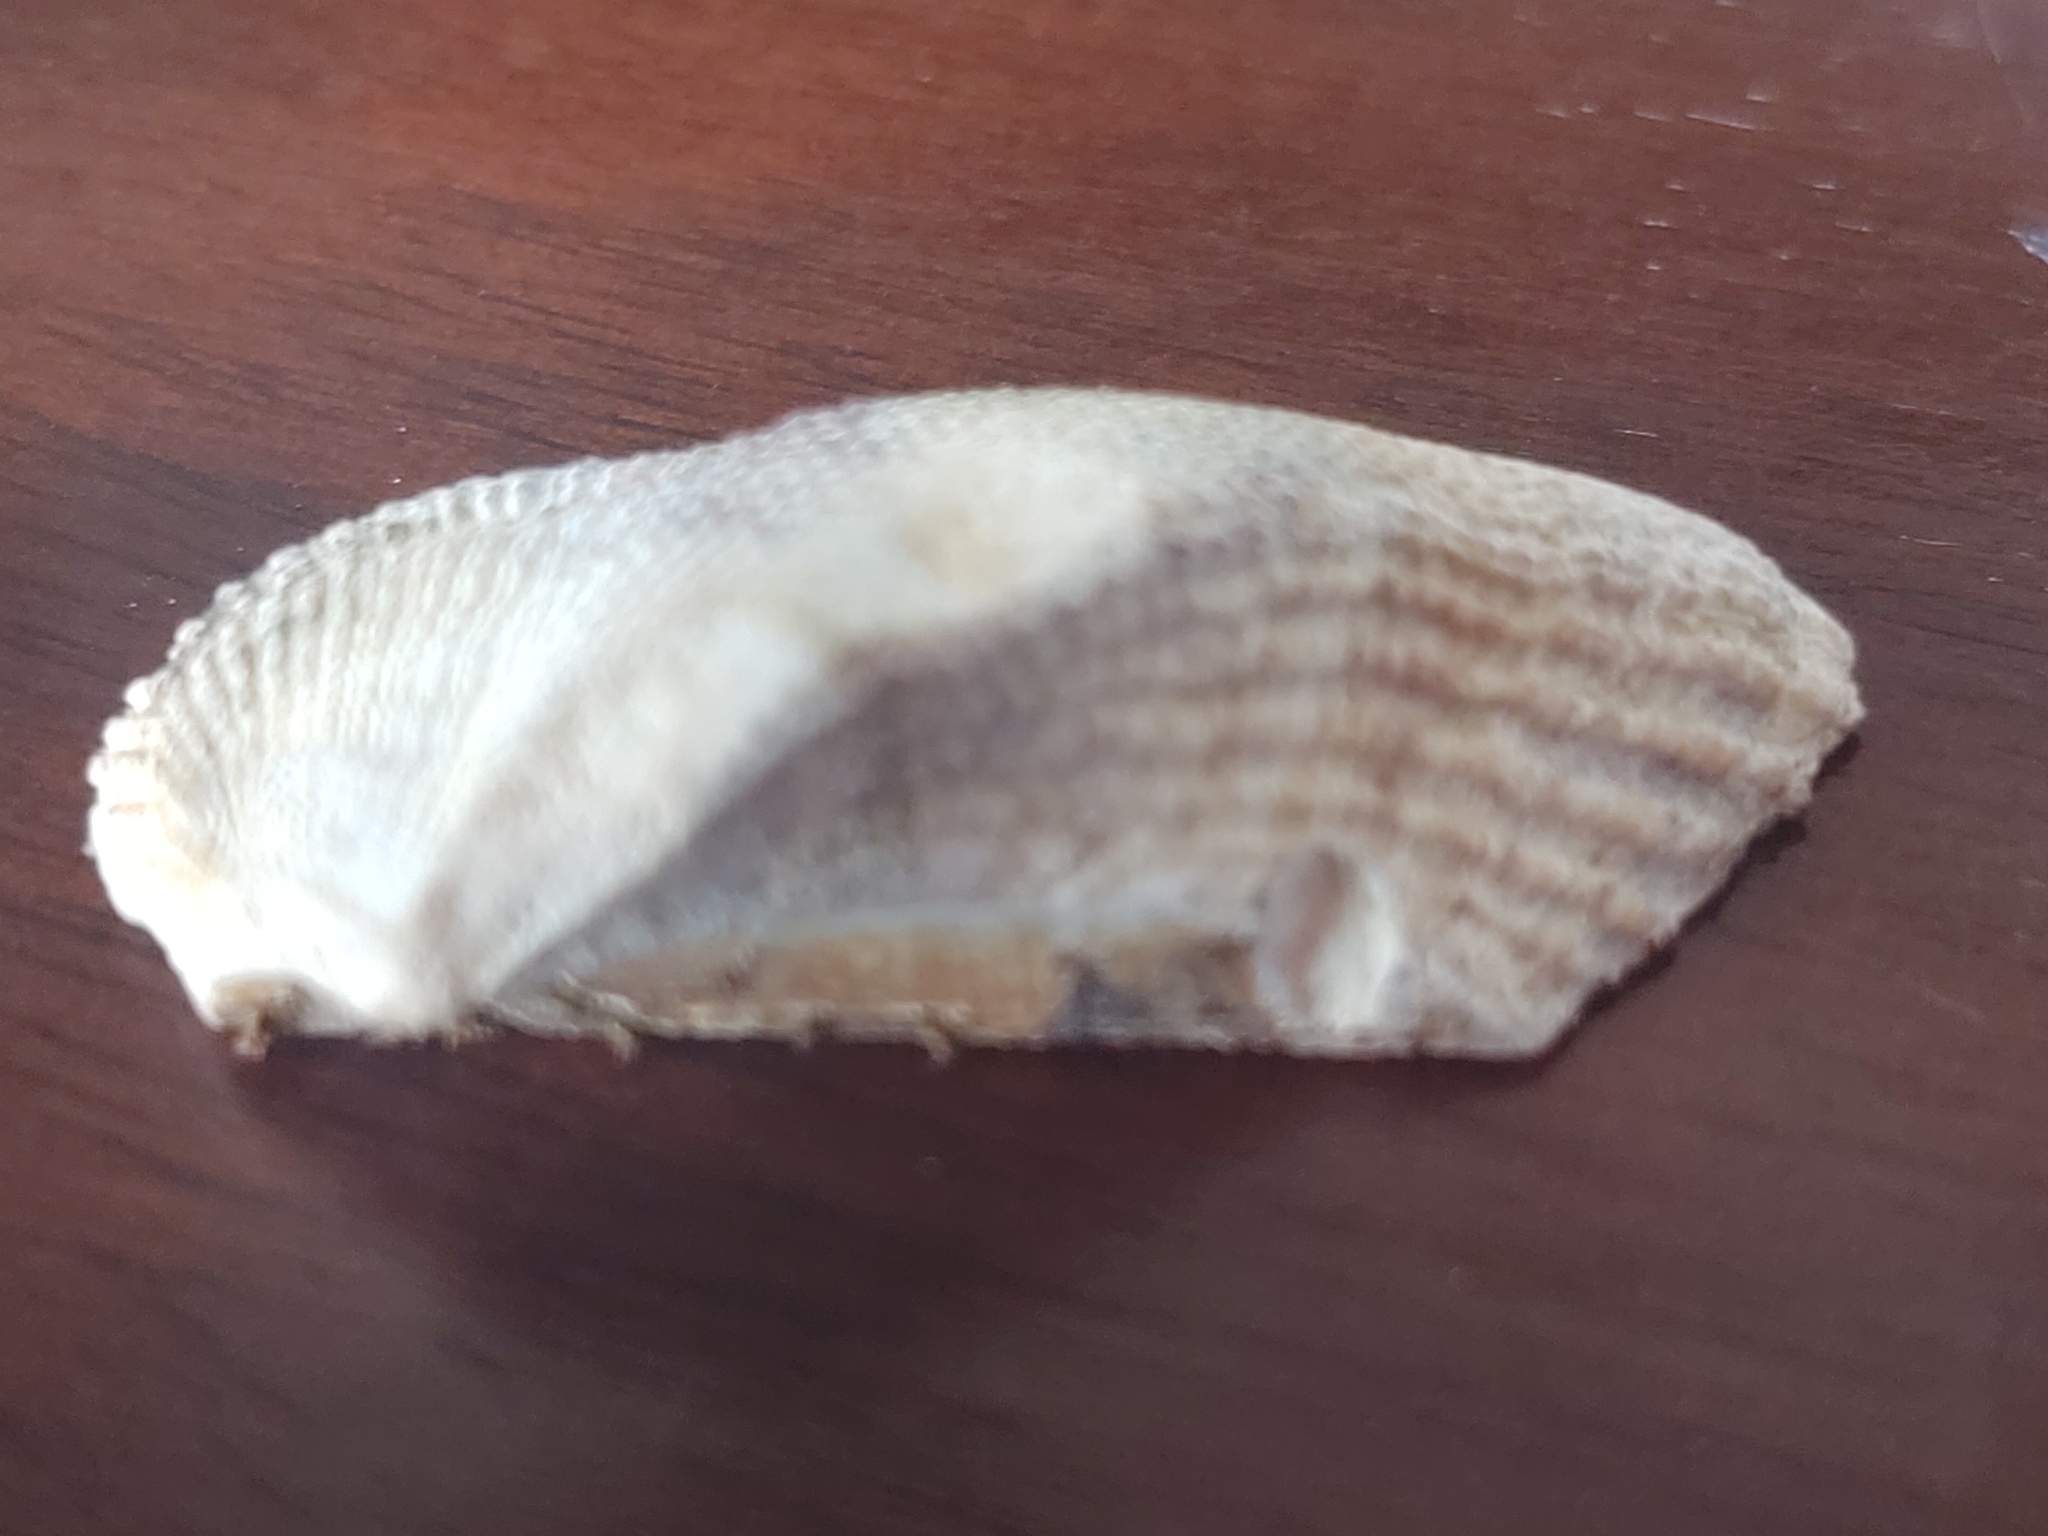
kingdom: Animalia
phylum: Mollusca
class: Bivalvia
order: Arcida
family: Arcidae
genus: Lamarcka
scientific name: Lamarcka imbricata
